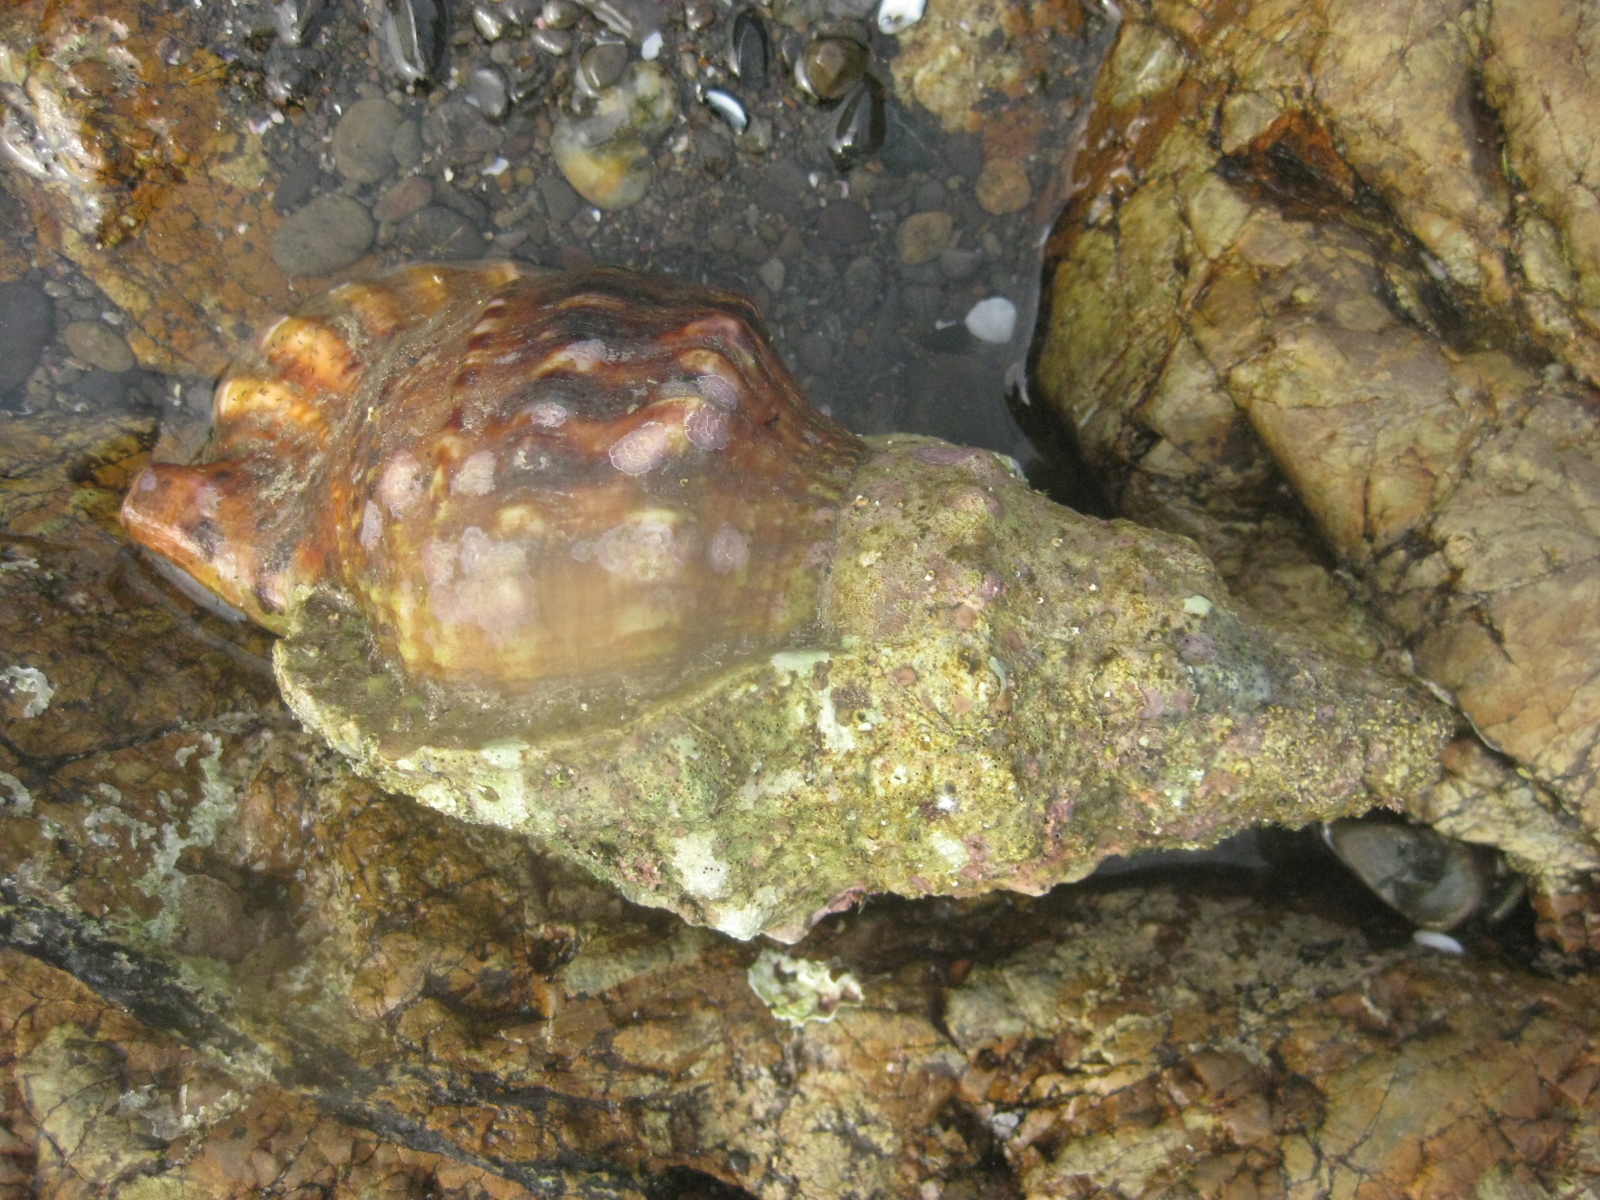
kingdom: Animalia
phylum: Mollusca
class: Gastropoda
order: Littorinimorpha
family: Charoniidae
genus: Charonia
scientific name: Charonia lampas
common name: Knobbed triton
